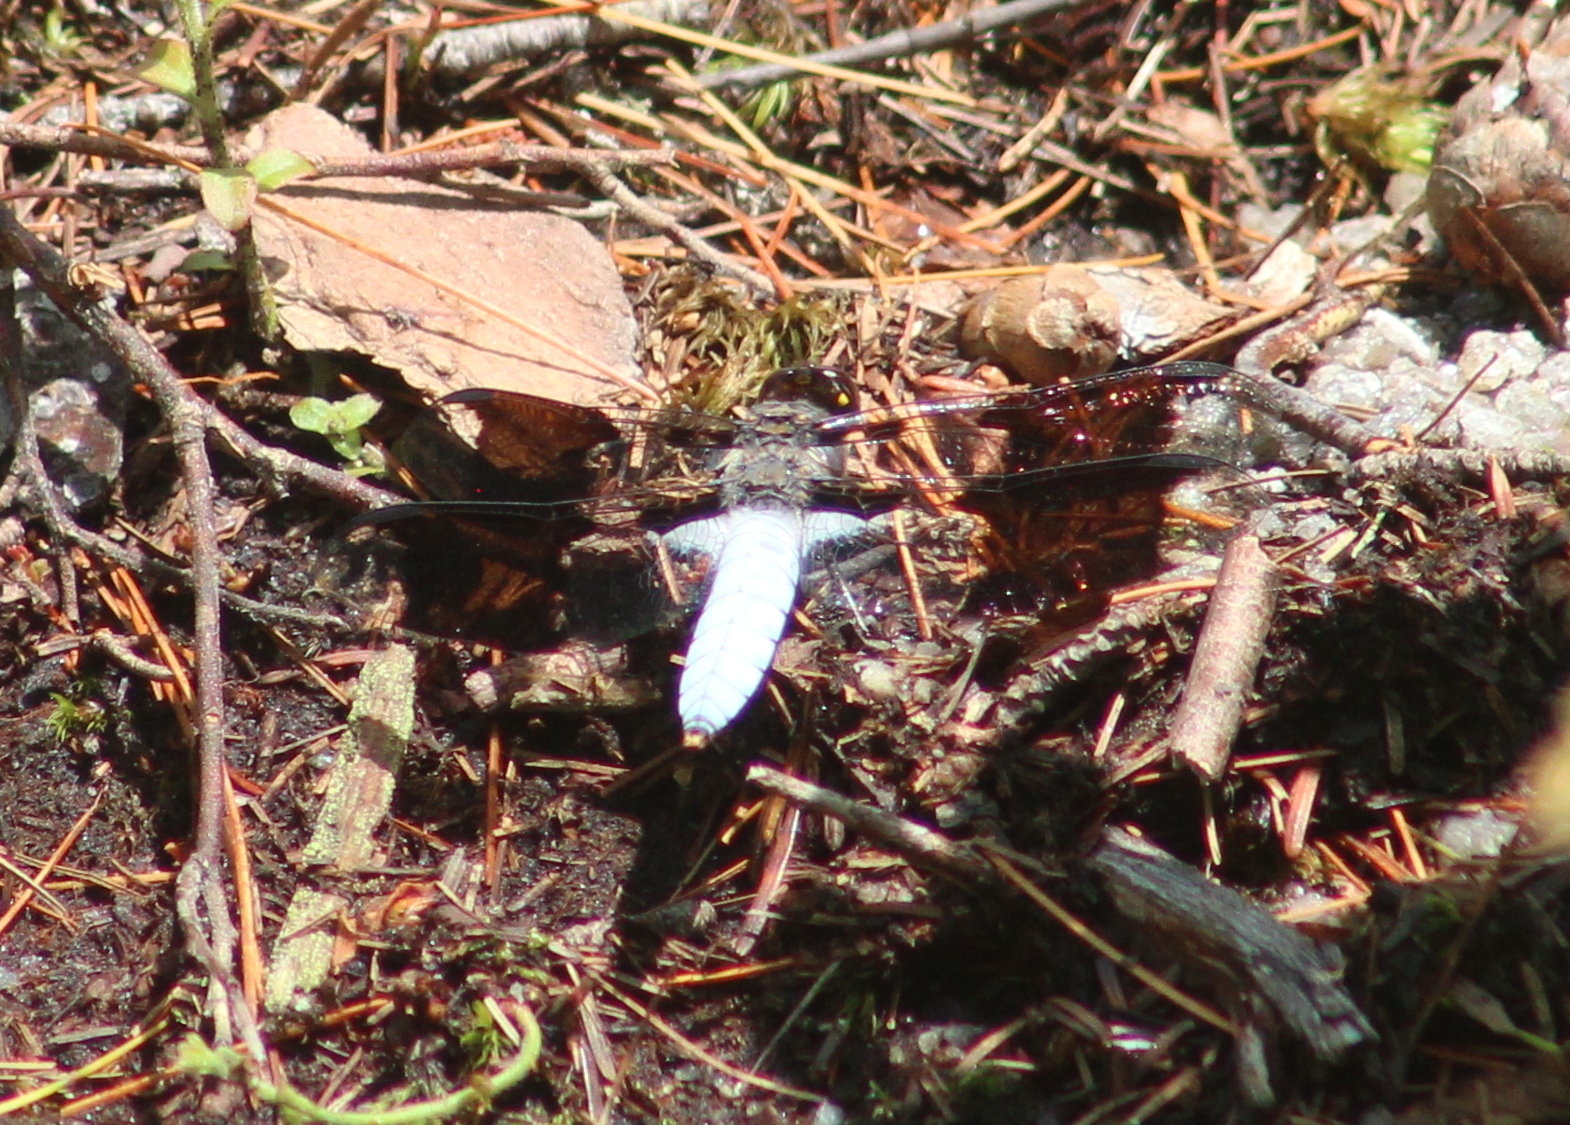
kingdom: Animalia
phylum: Arthropoda
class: Insecta
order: Odonata
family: Libellulidae
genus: Plathemis
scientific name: Plathemis lydia
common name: Common whitetail
